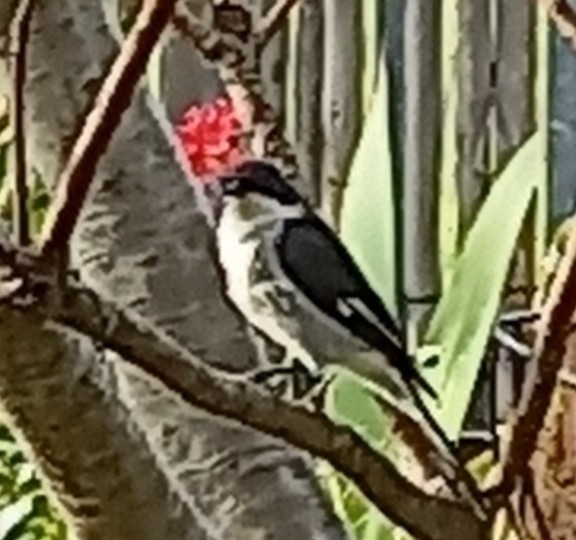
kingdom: Animalia
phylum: Chordata
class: Aves
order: Passeriformes
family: Muscicapidae
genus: Sigelus
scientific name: Sigelus silens
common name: Fiscal flycatcher
